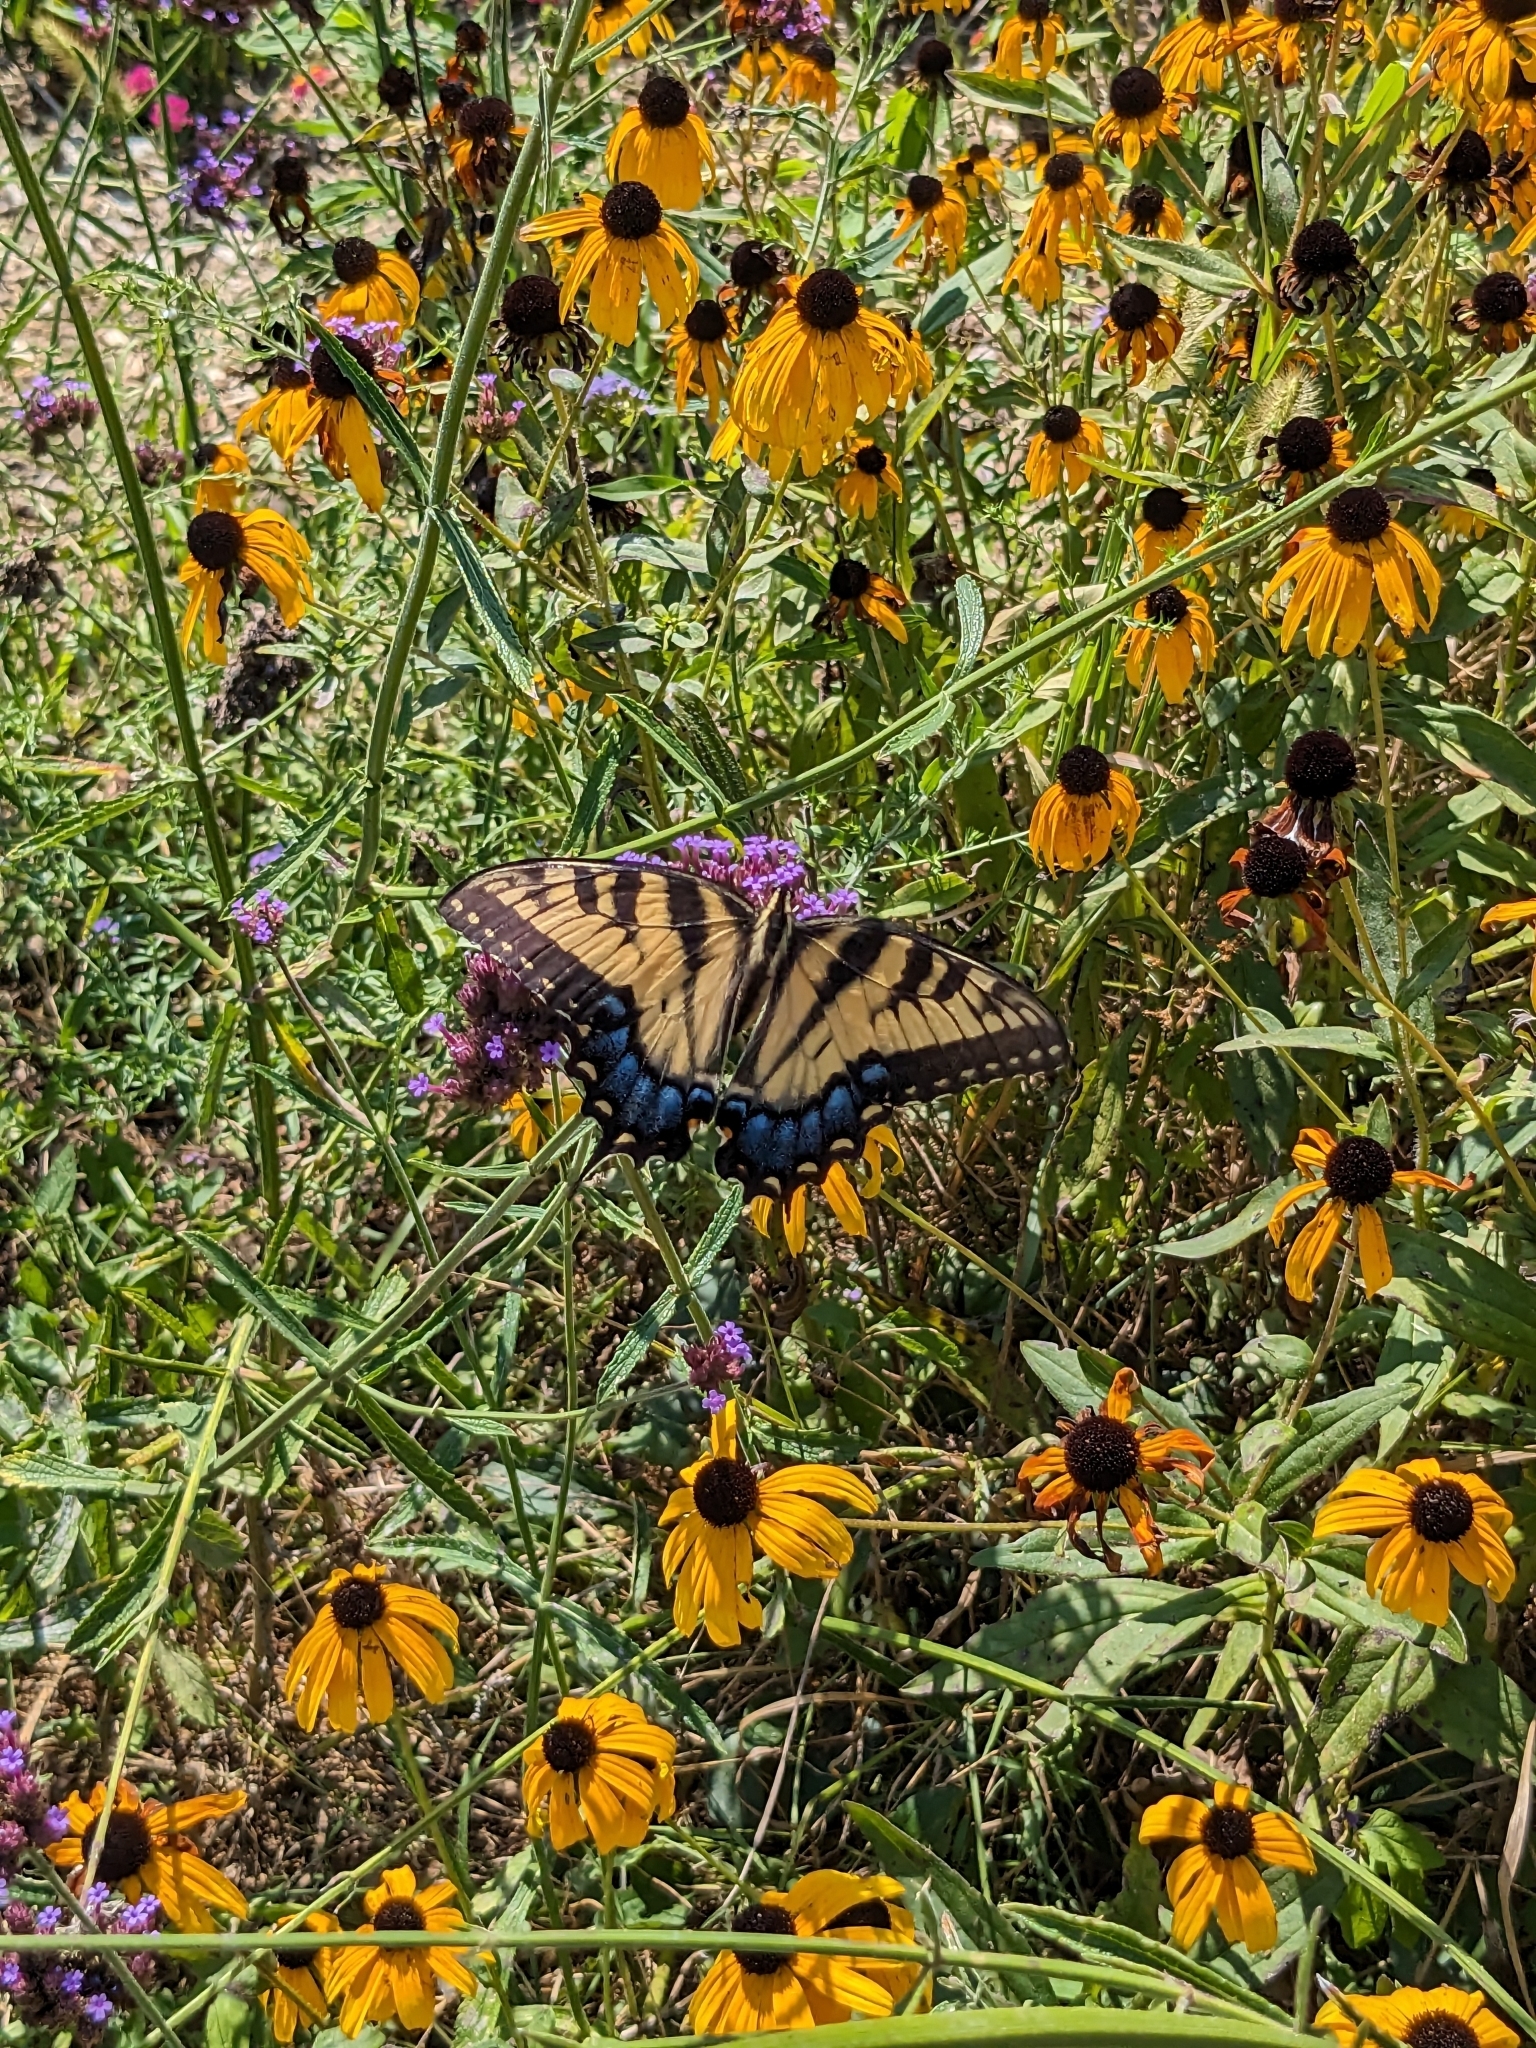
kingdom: Animalia
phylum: Arthropoda
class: Insecta
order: Lepidoptera
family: Papilionidae
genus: Papilio
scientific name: Papilio glaucus
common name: Tiger swallowtail
